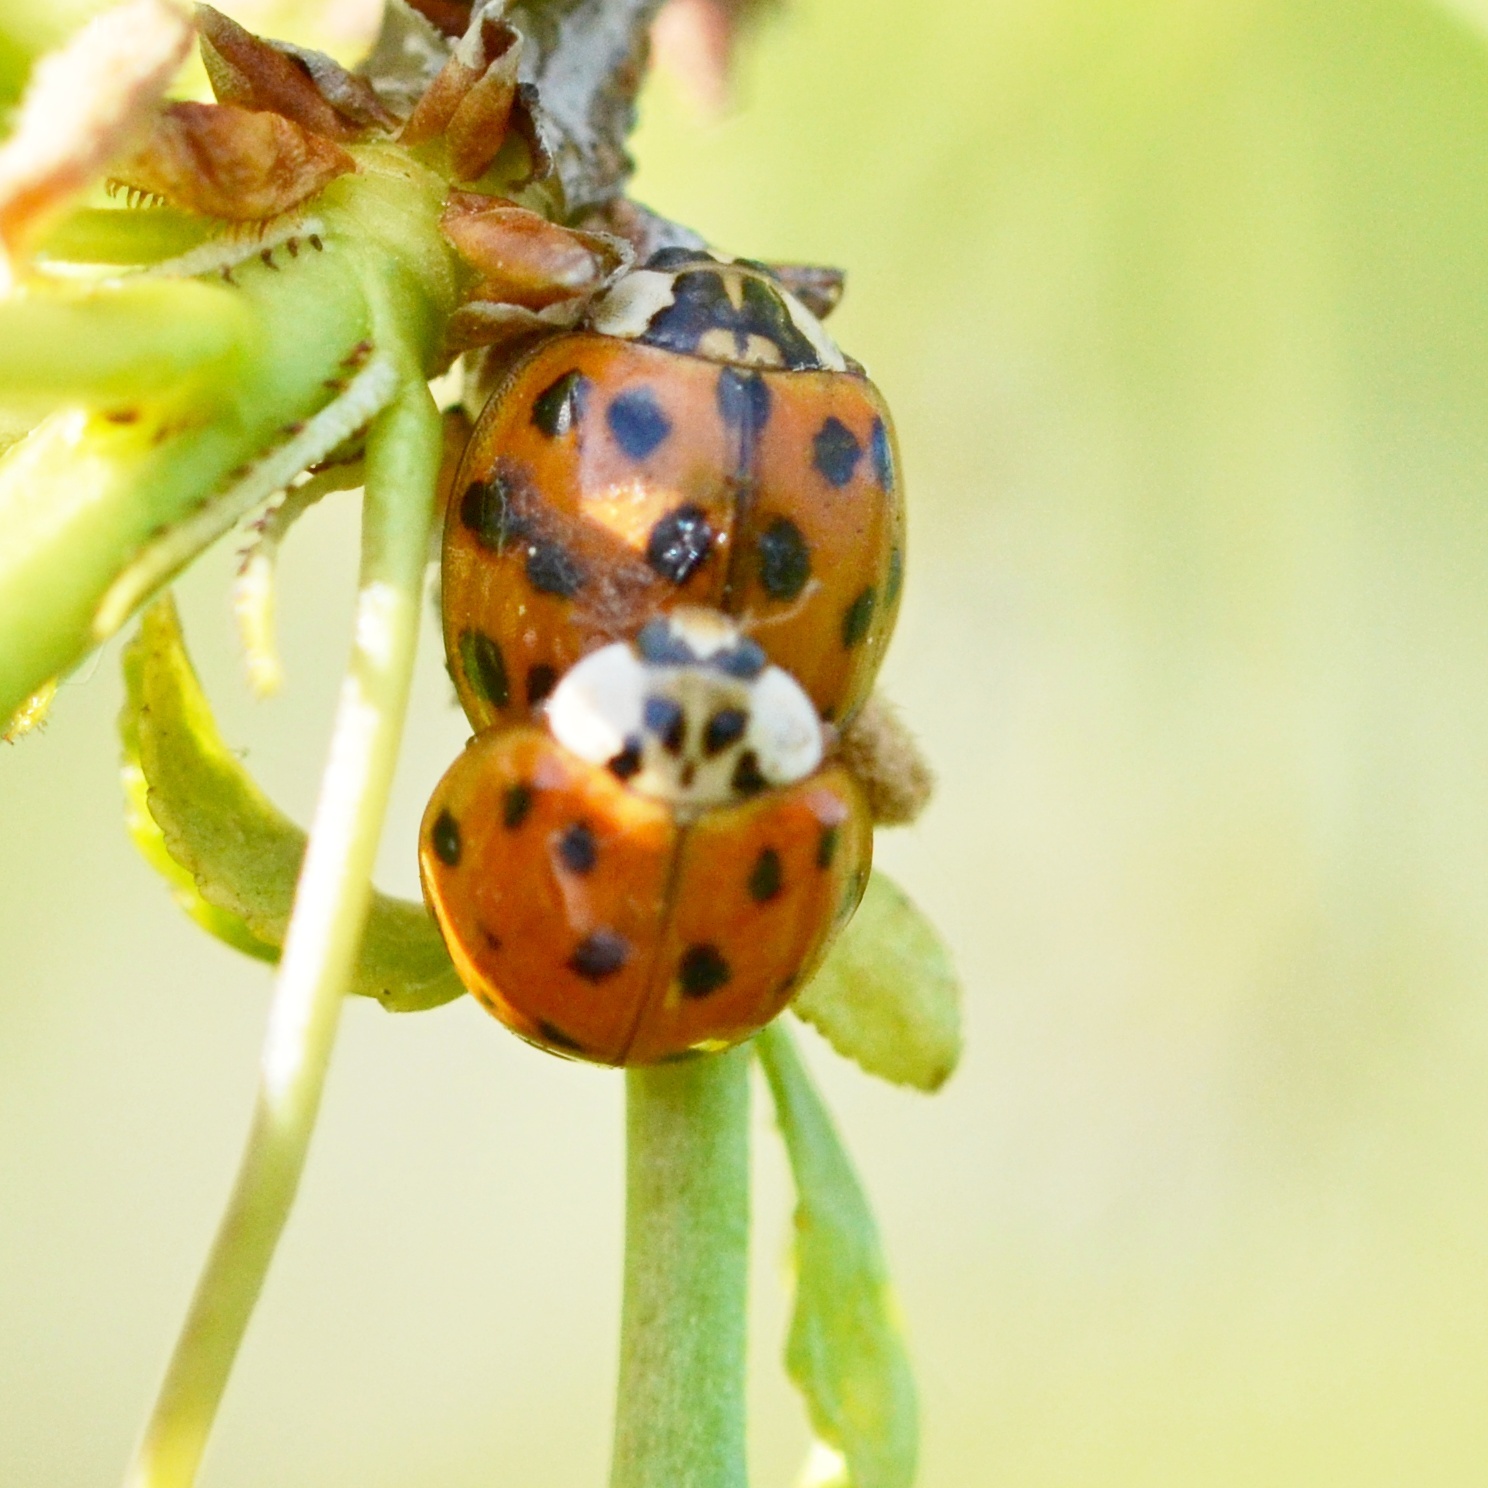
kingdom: Animalia
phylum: Arthropoda
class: Insecta
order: Coleoptera
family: Coccinellidae
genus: Harmonia
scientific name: Harmonia axyridis
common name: Harlequin ladybird
